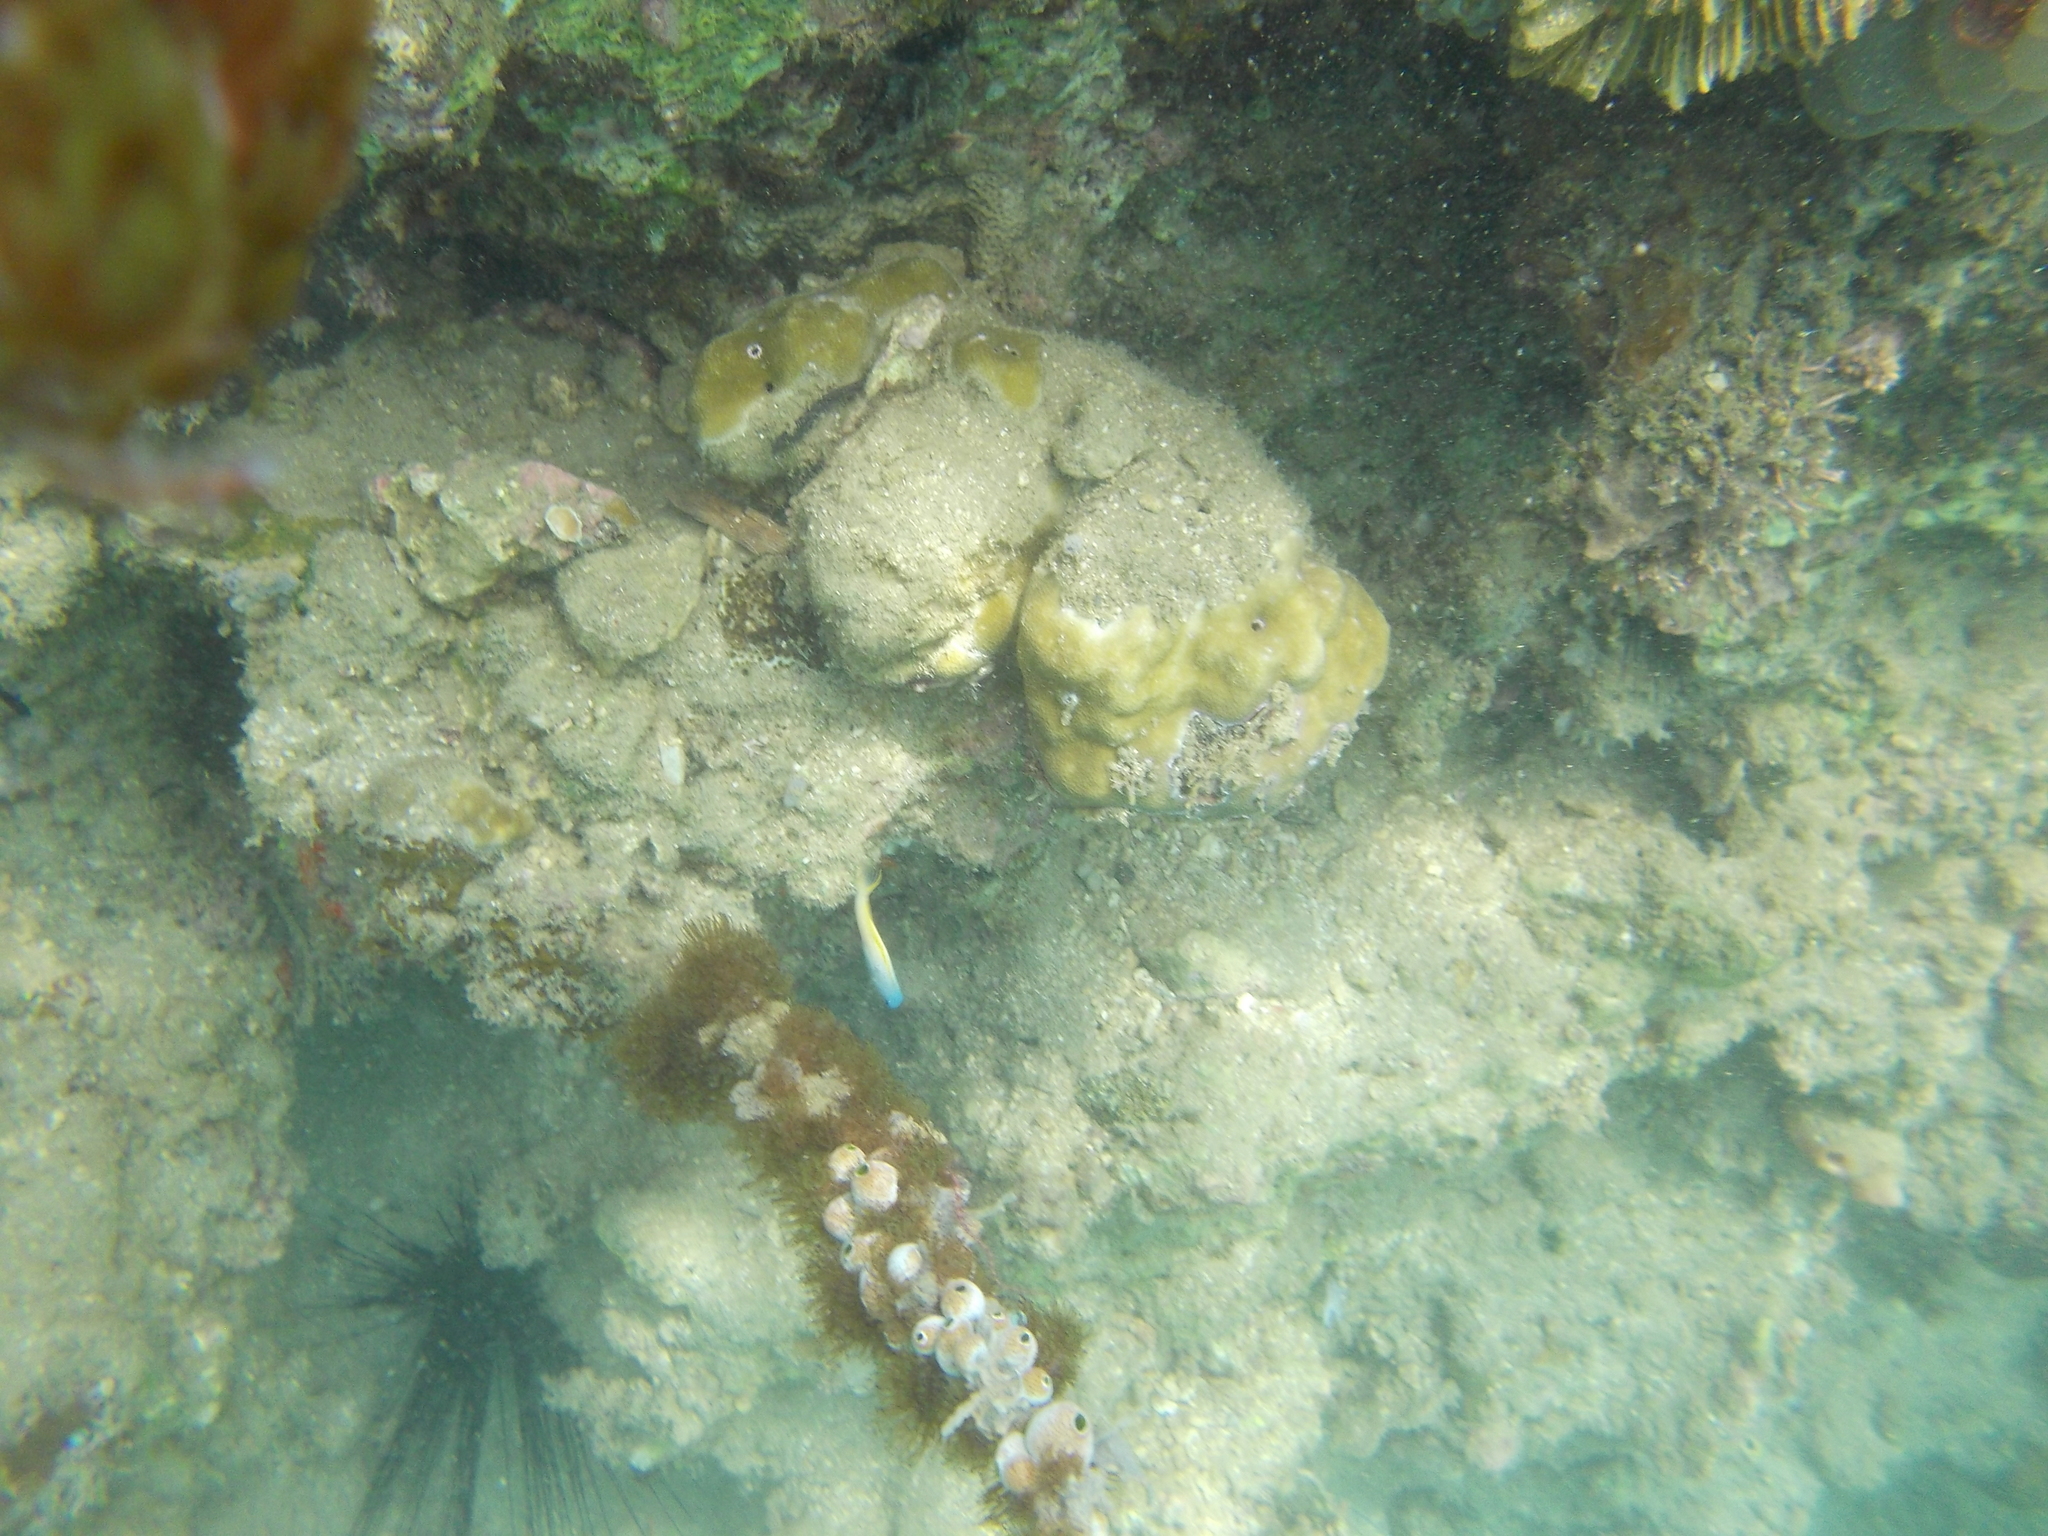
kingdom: Animalia
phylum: Cnidaria
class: Anthozoa
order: Zoantharia
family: Zoanthidae
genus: Acrozoanthus
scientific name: Acrozoanthus australiae
